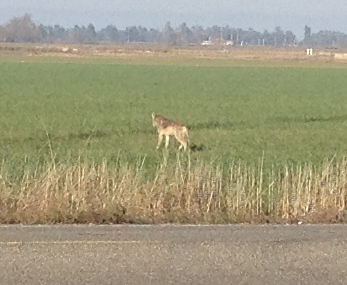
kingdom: Animalia
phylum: Chordata
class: Mammalia
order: Carnivora
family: Canidae
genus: Canis
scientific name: Canis latrans
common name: Coyote
